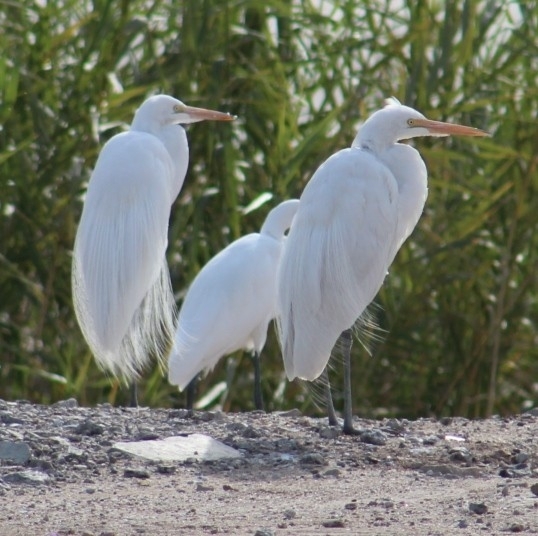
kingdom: Animalia
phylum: Chordata
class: Aves
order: Pelecaniformes
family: Ardeidae
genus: Ardea
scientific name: Ardea alba
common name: Great egret
